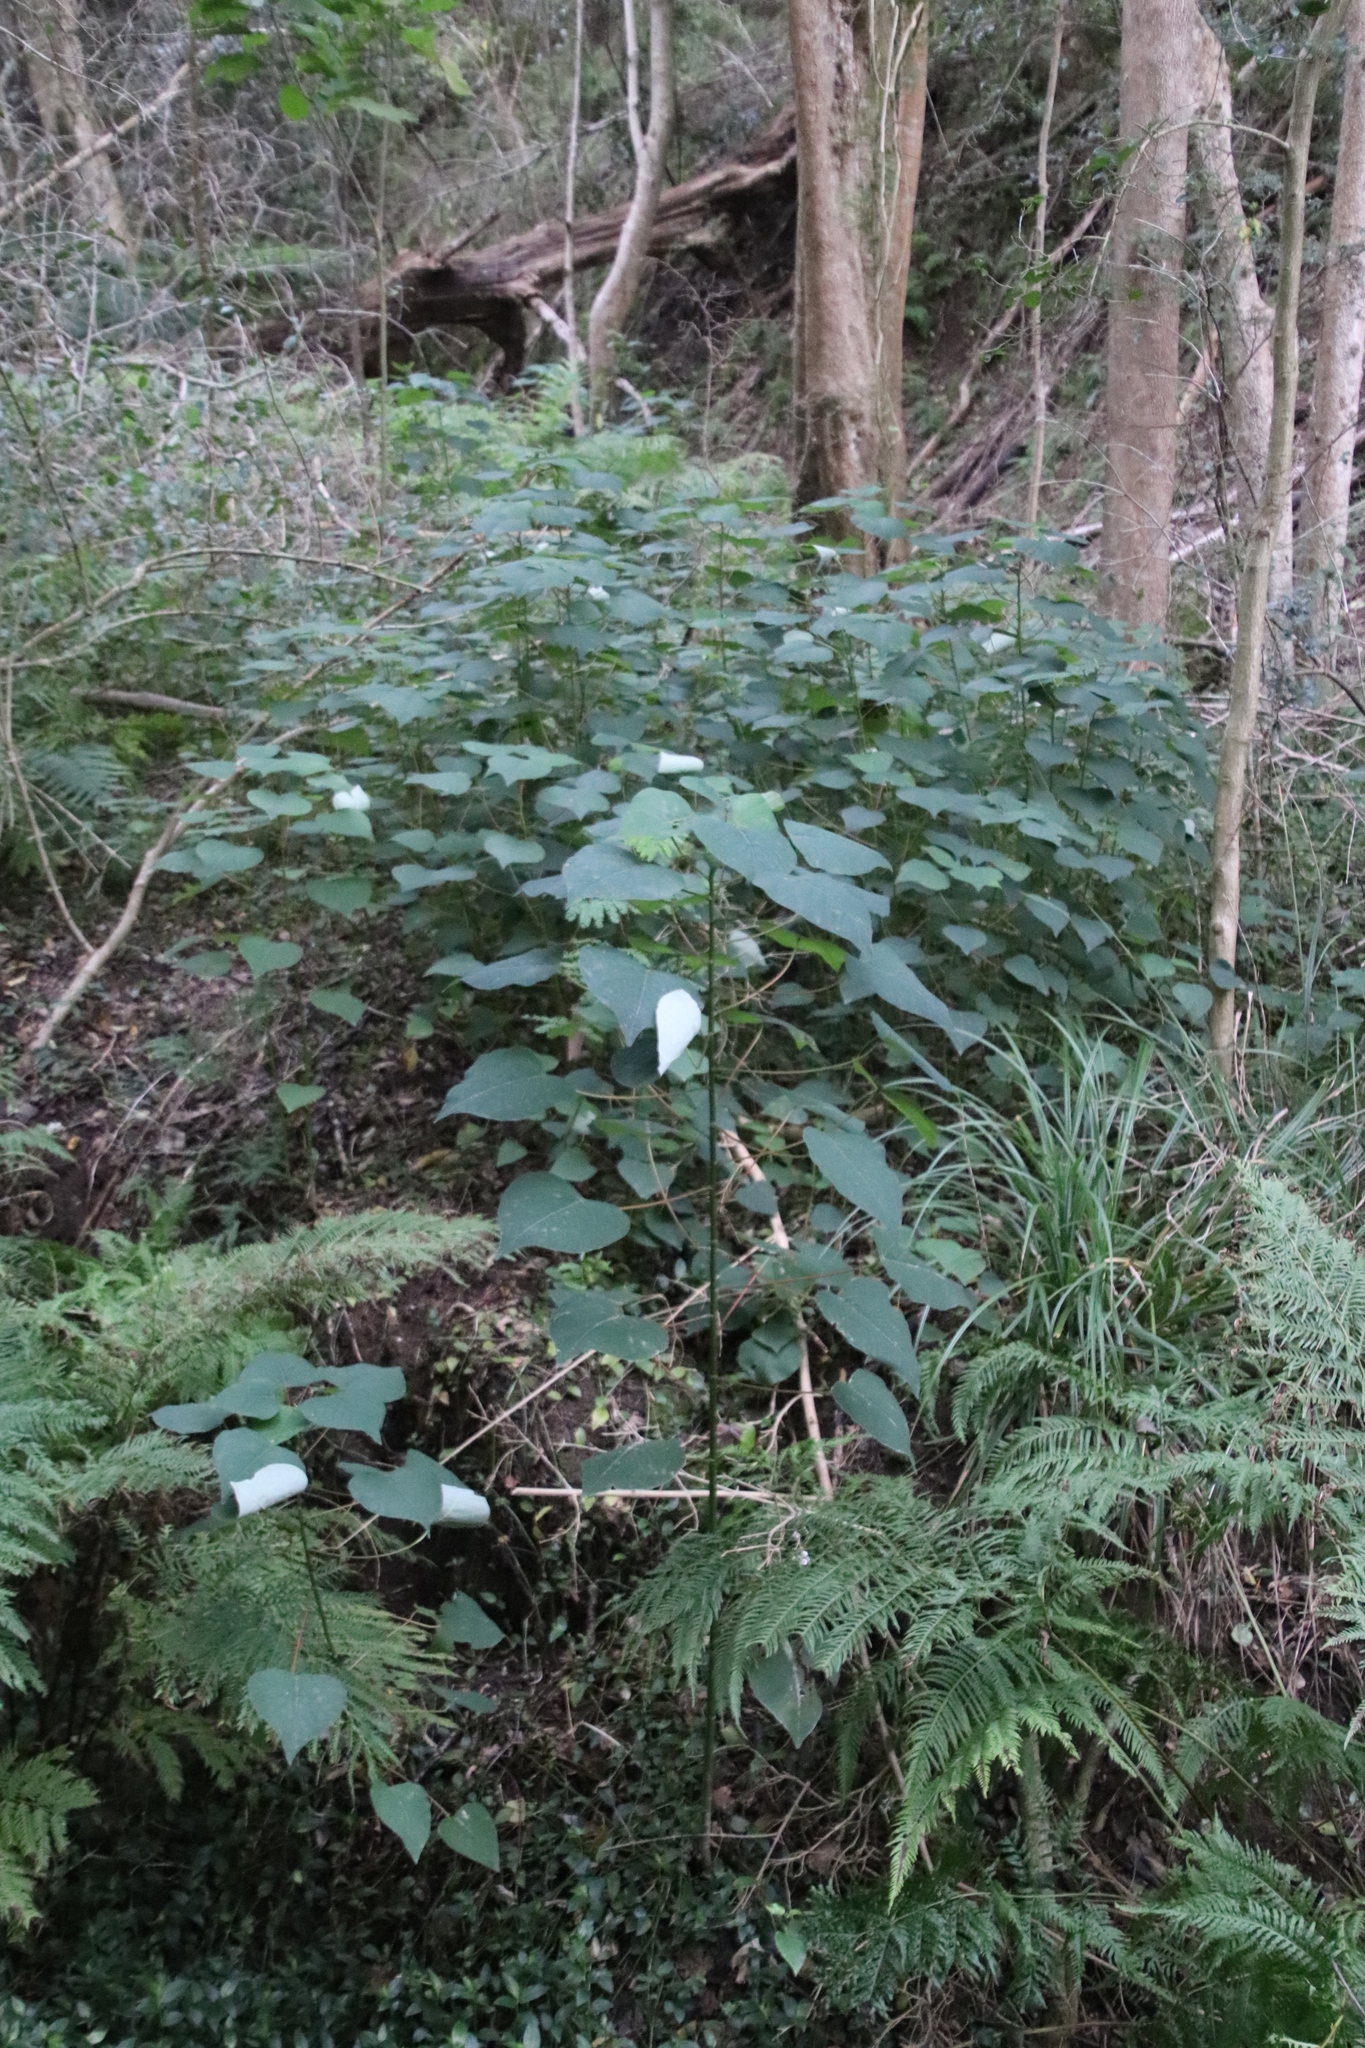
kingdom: Plantae
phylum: Tracheophyta
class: Magnoliopsida
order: Malpighiales
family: Euphorbiaceae
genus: Homalanthus
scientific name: Homalanthus populifolius
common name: Queensland poplar
